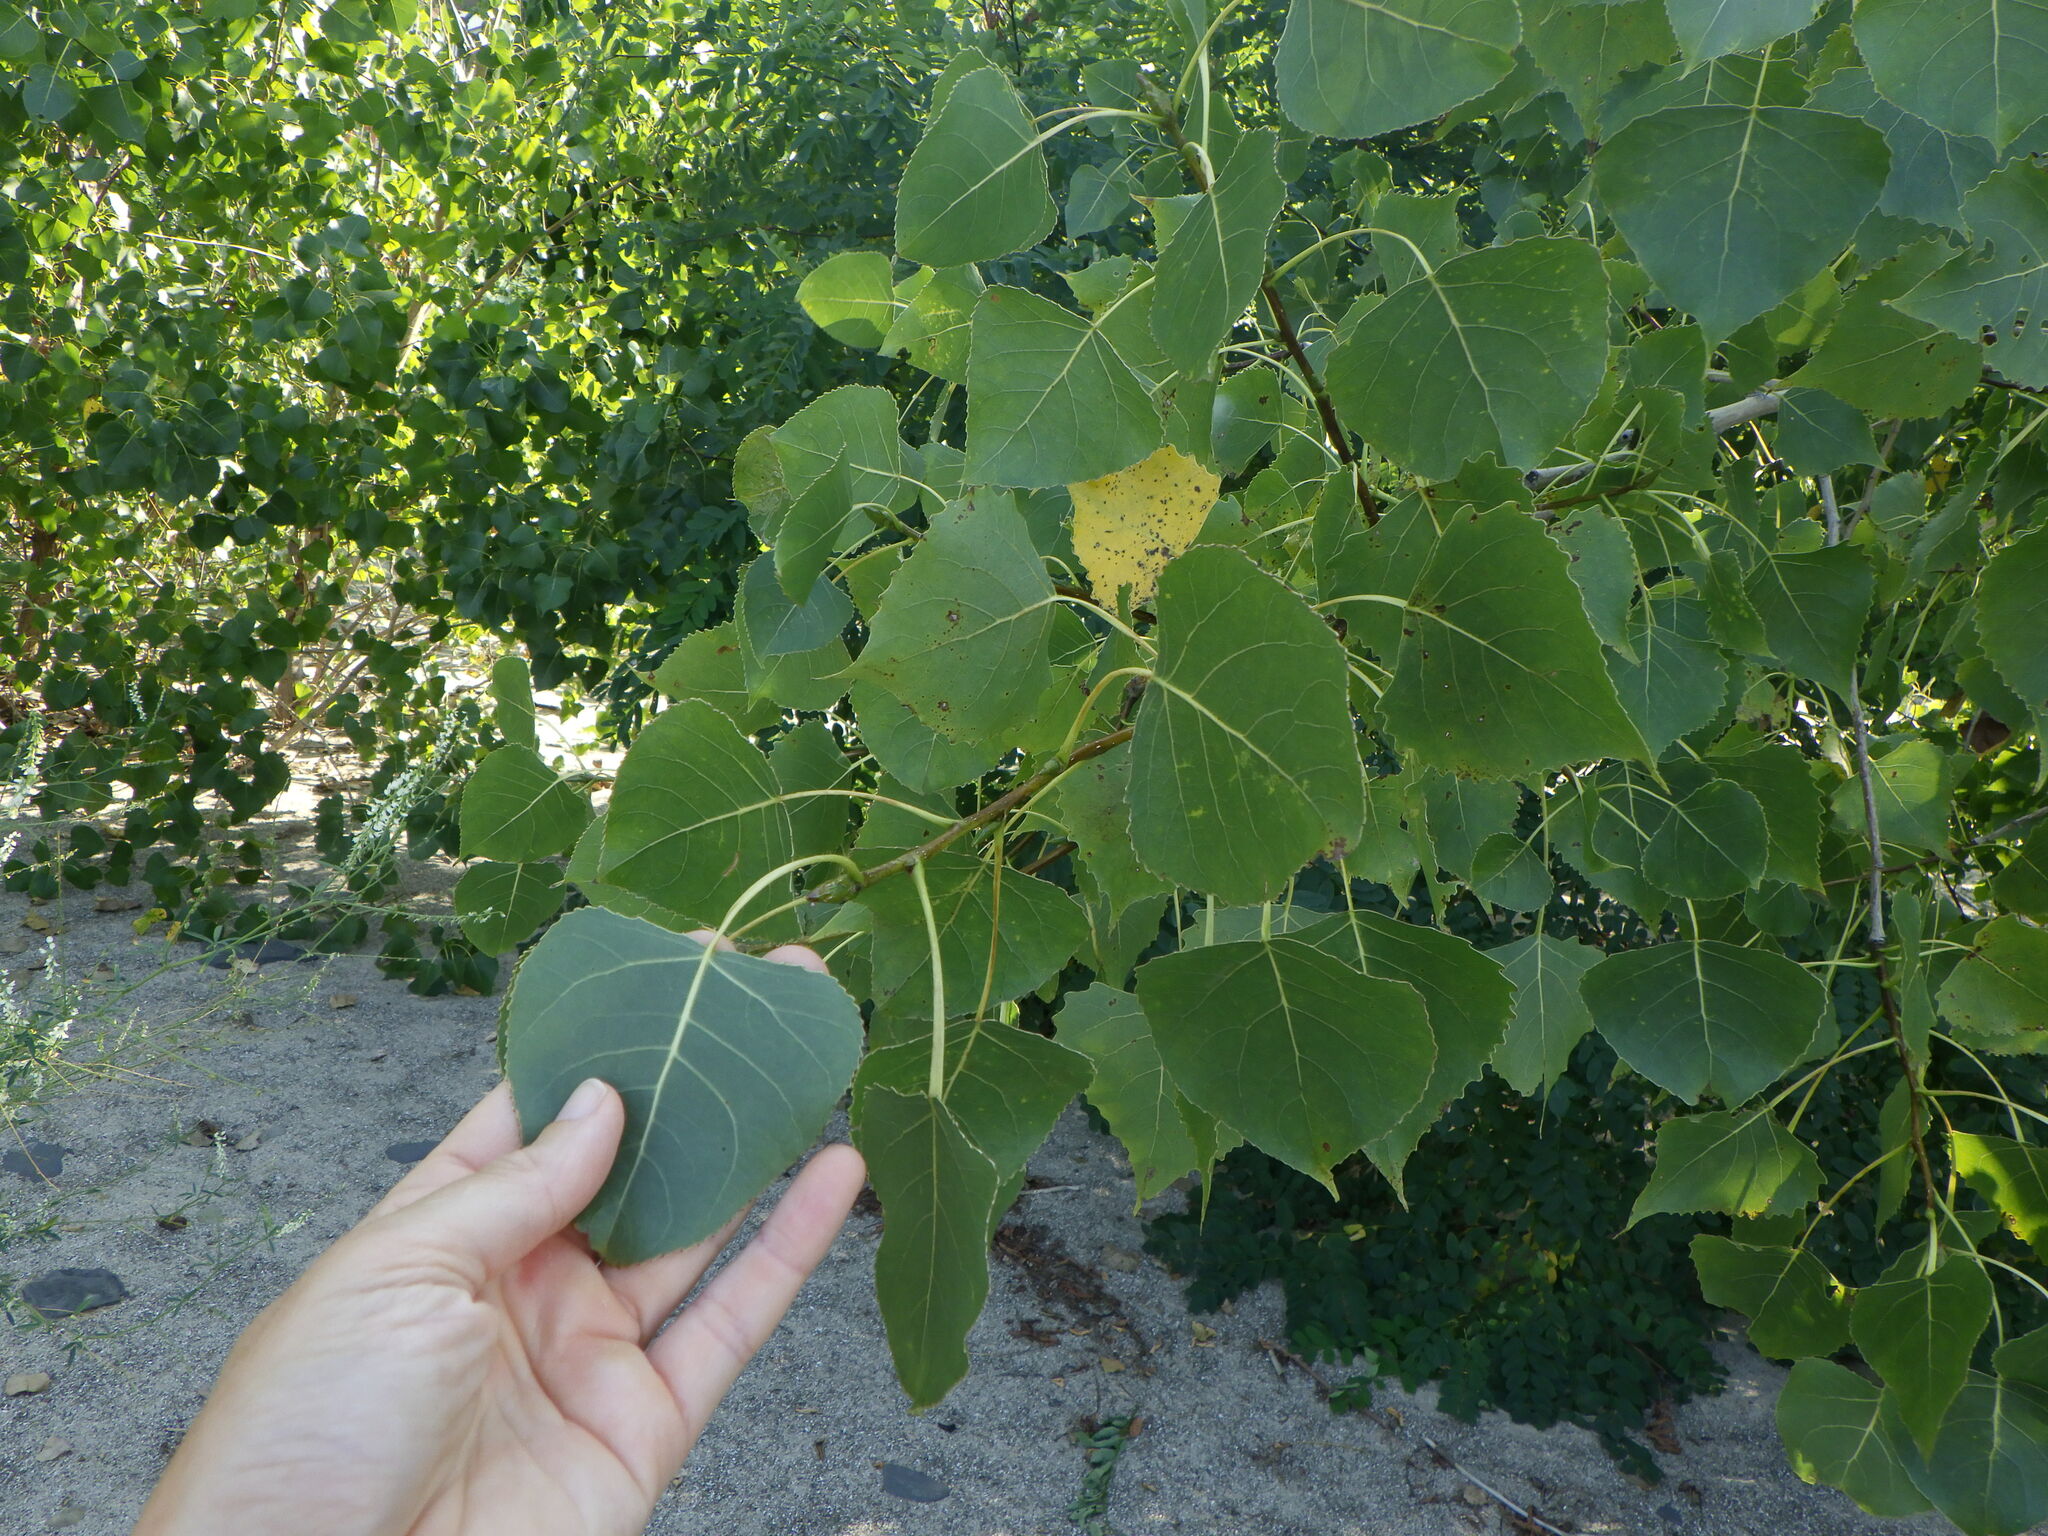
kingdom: Plantae
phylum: Tracheophyta
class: Magnoliopsida
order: Malpighiales
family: Salicaceae
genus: Populus
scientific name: Populus tremuloides
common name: Quaking aspen
